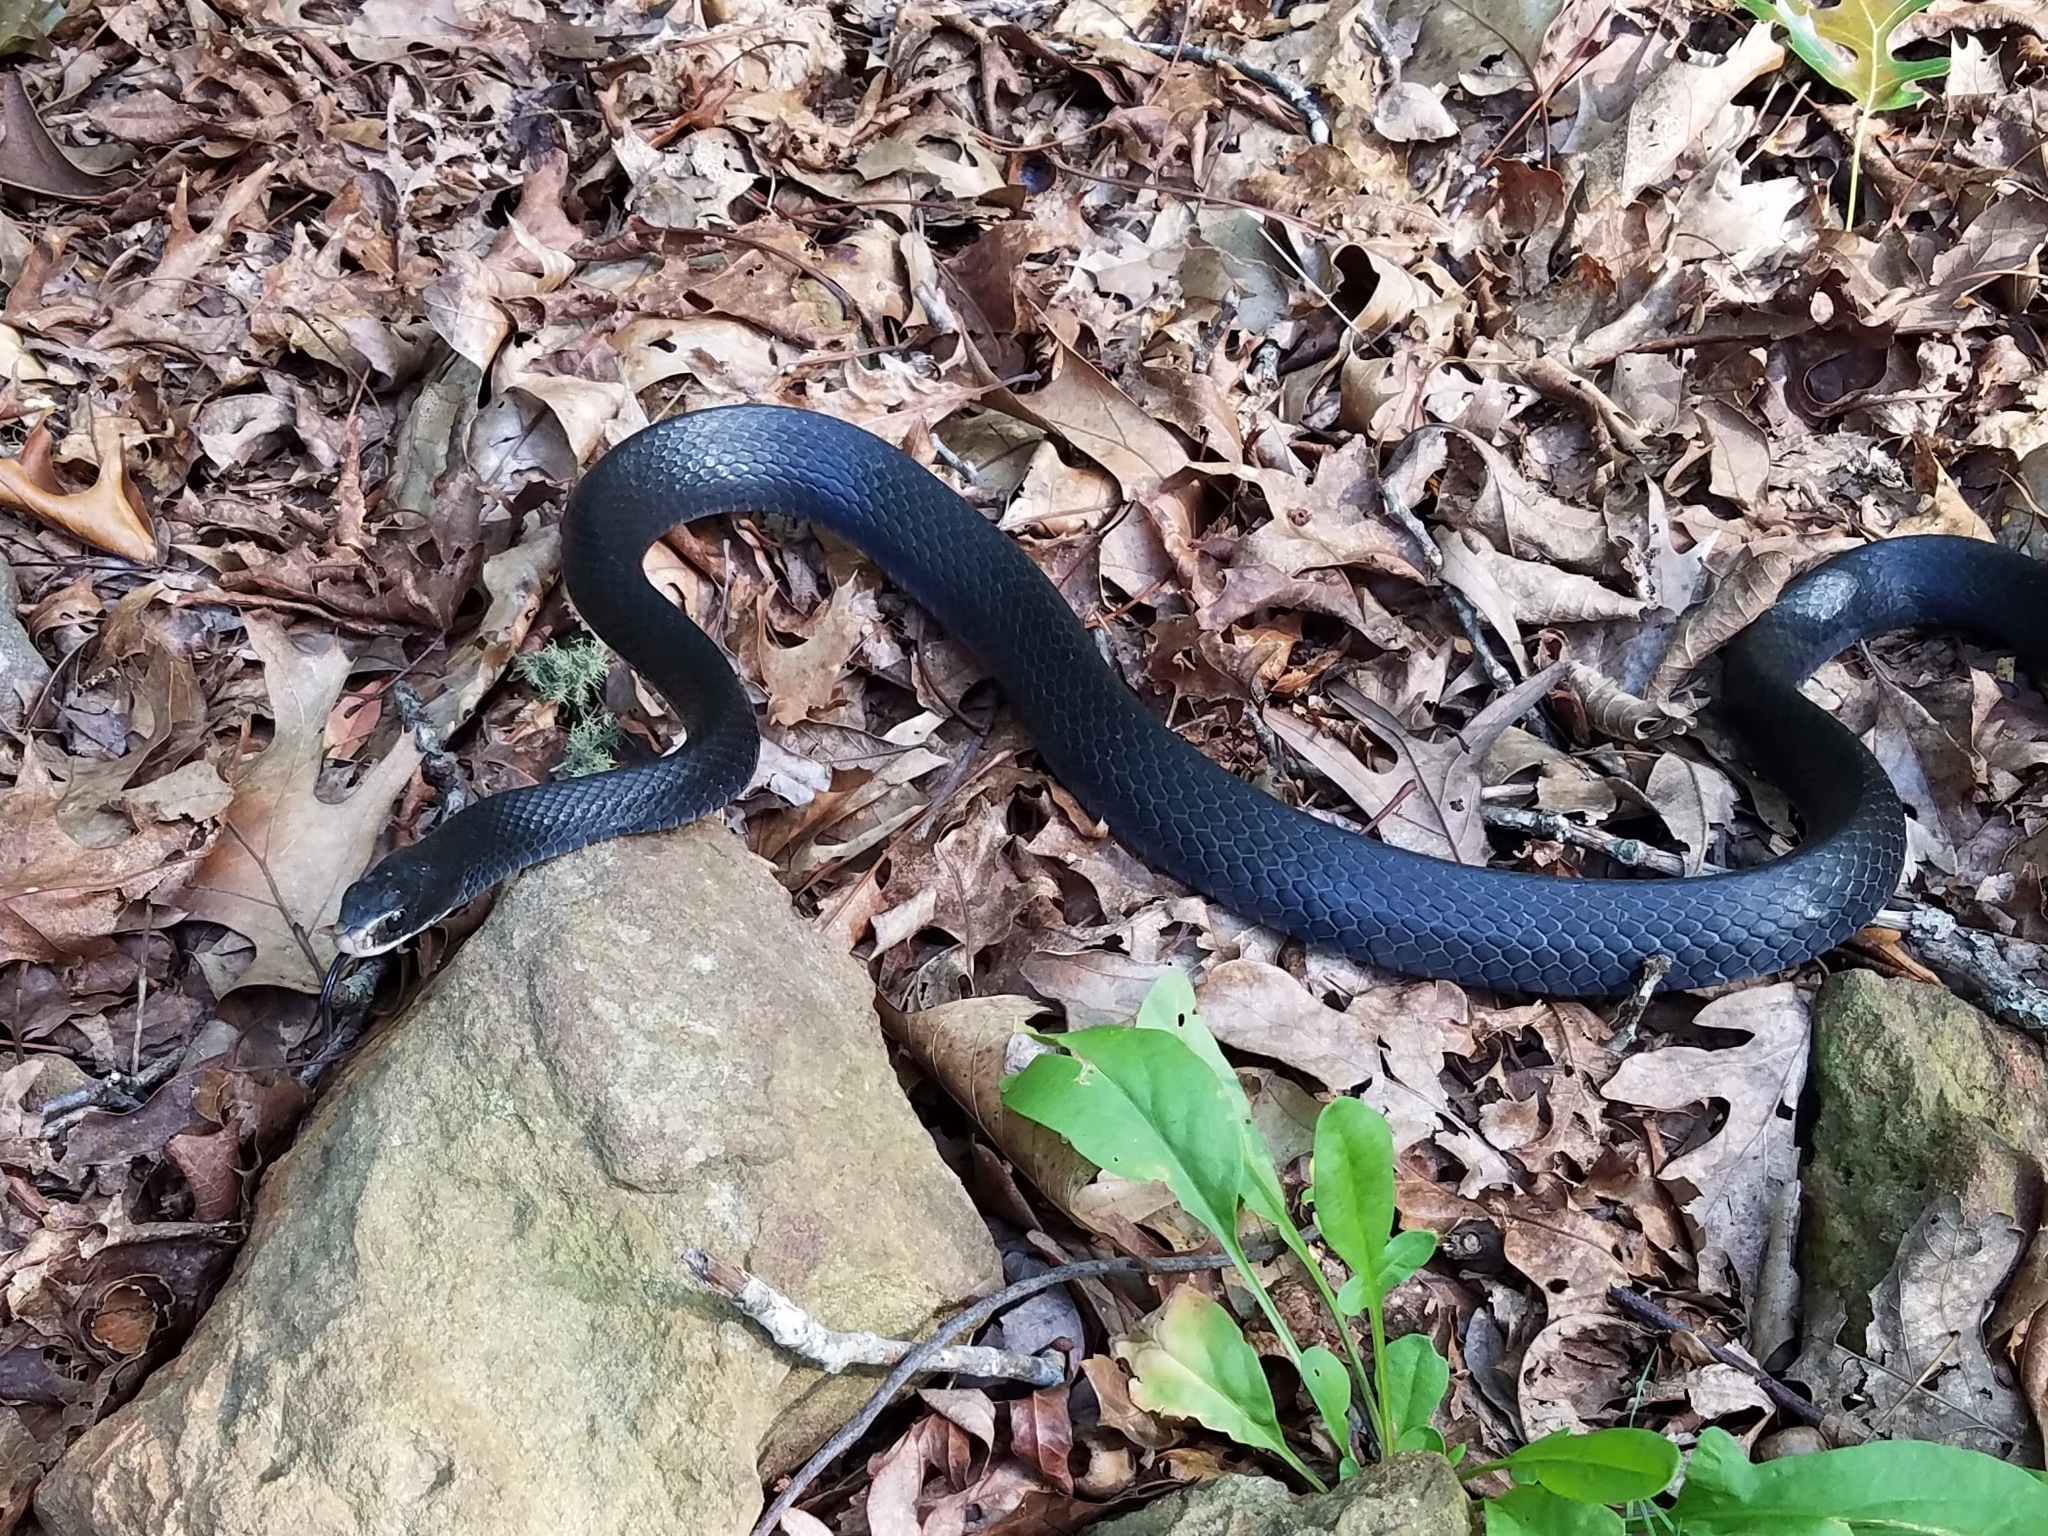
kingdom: Animalia
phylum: Chordata
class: Squamata
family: Colubridae
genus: Coluber
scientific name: Coluber constrictor
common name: Eastern racer
